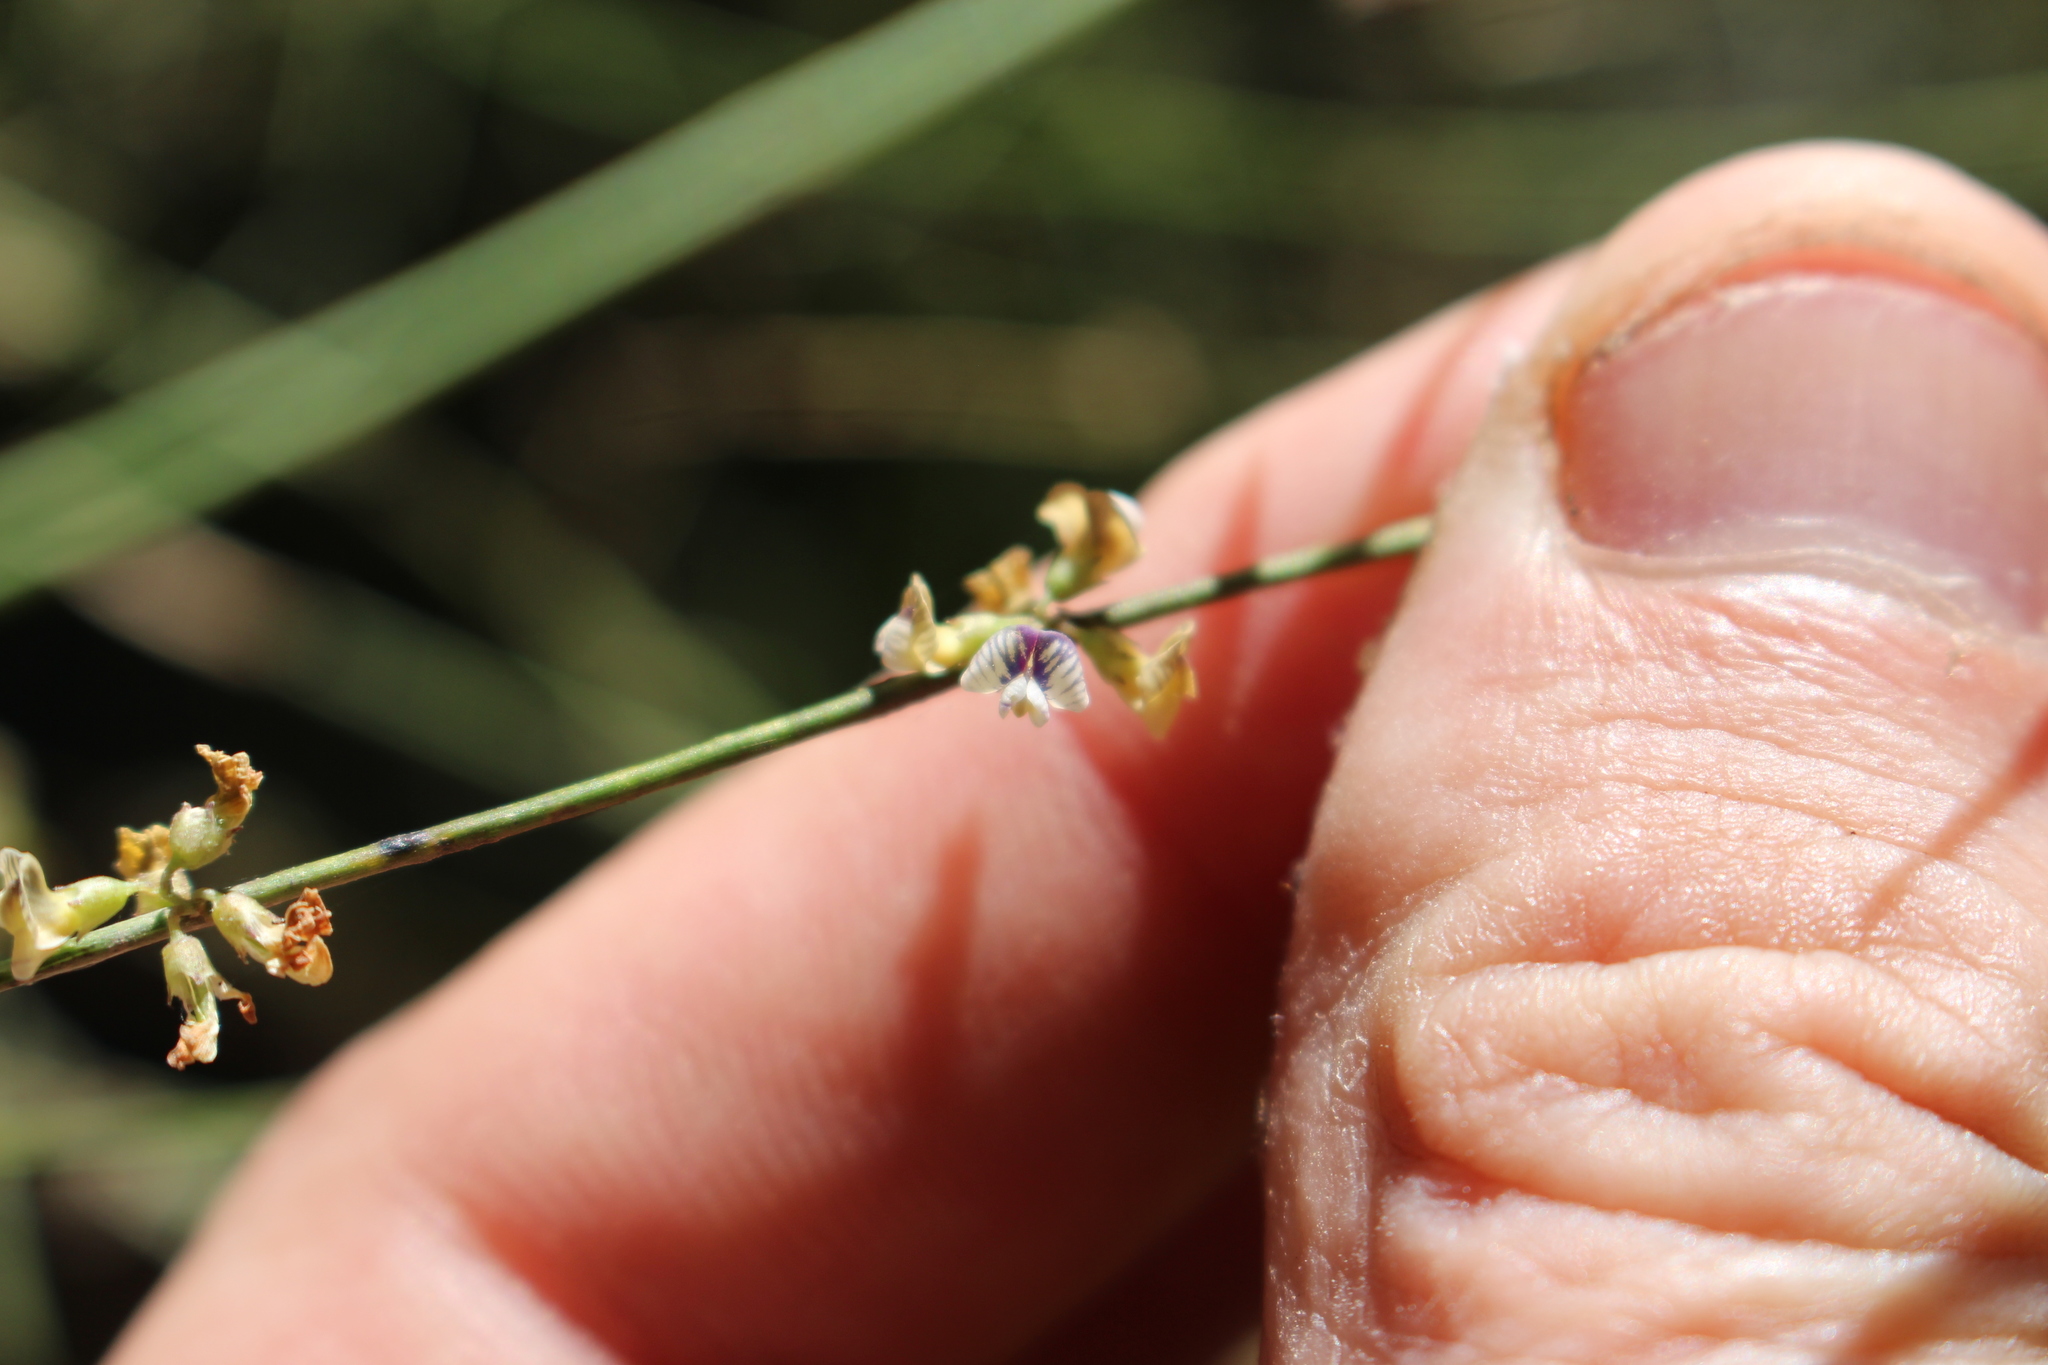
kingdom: Plantae
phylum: Tracheophyta
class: Magnoliopsida
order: Fabales
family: Fabaceae
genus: Carmichaelia
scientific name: Carmichaelia australis
